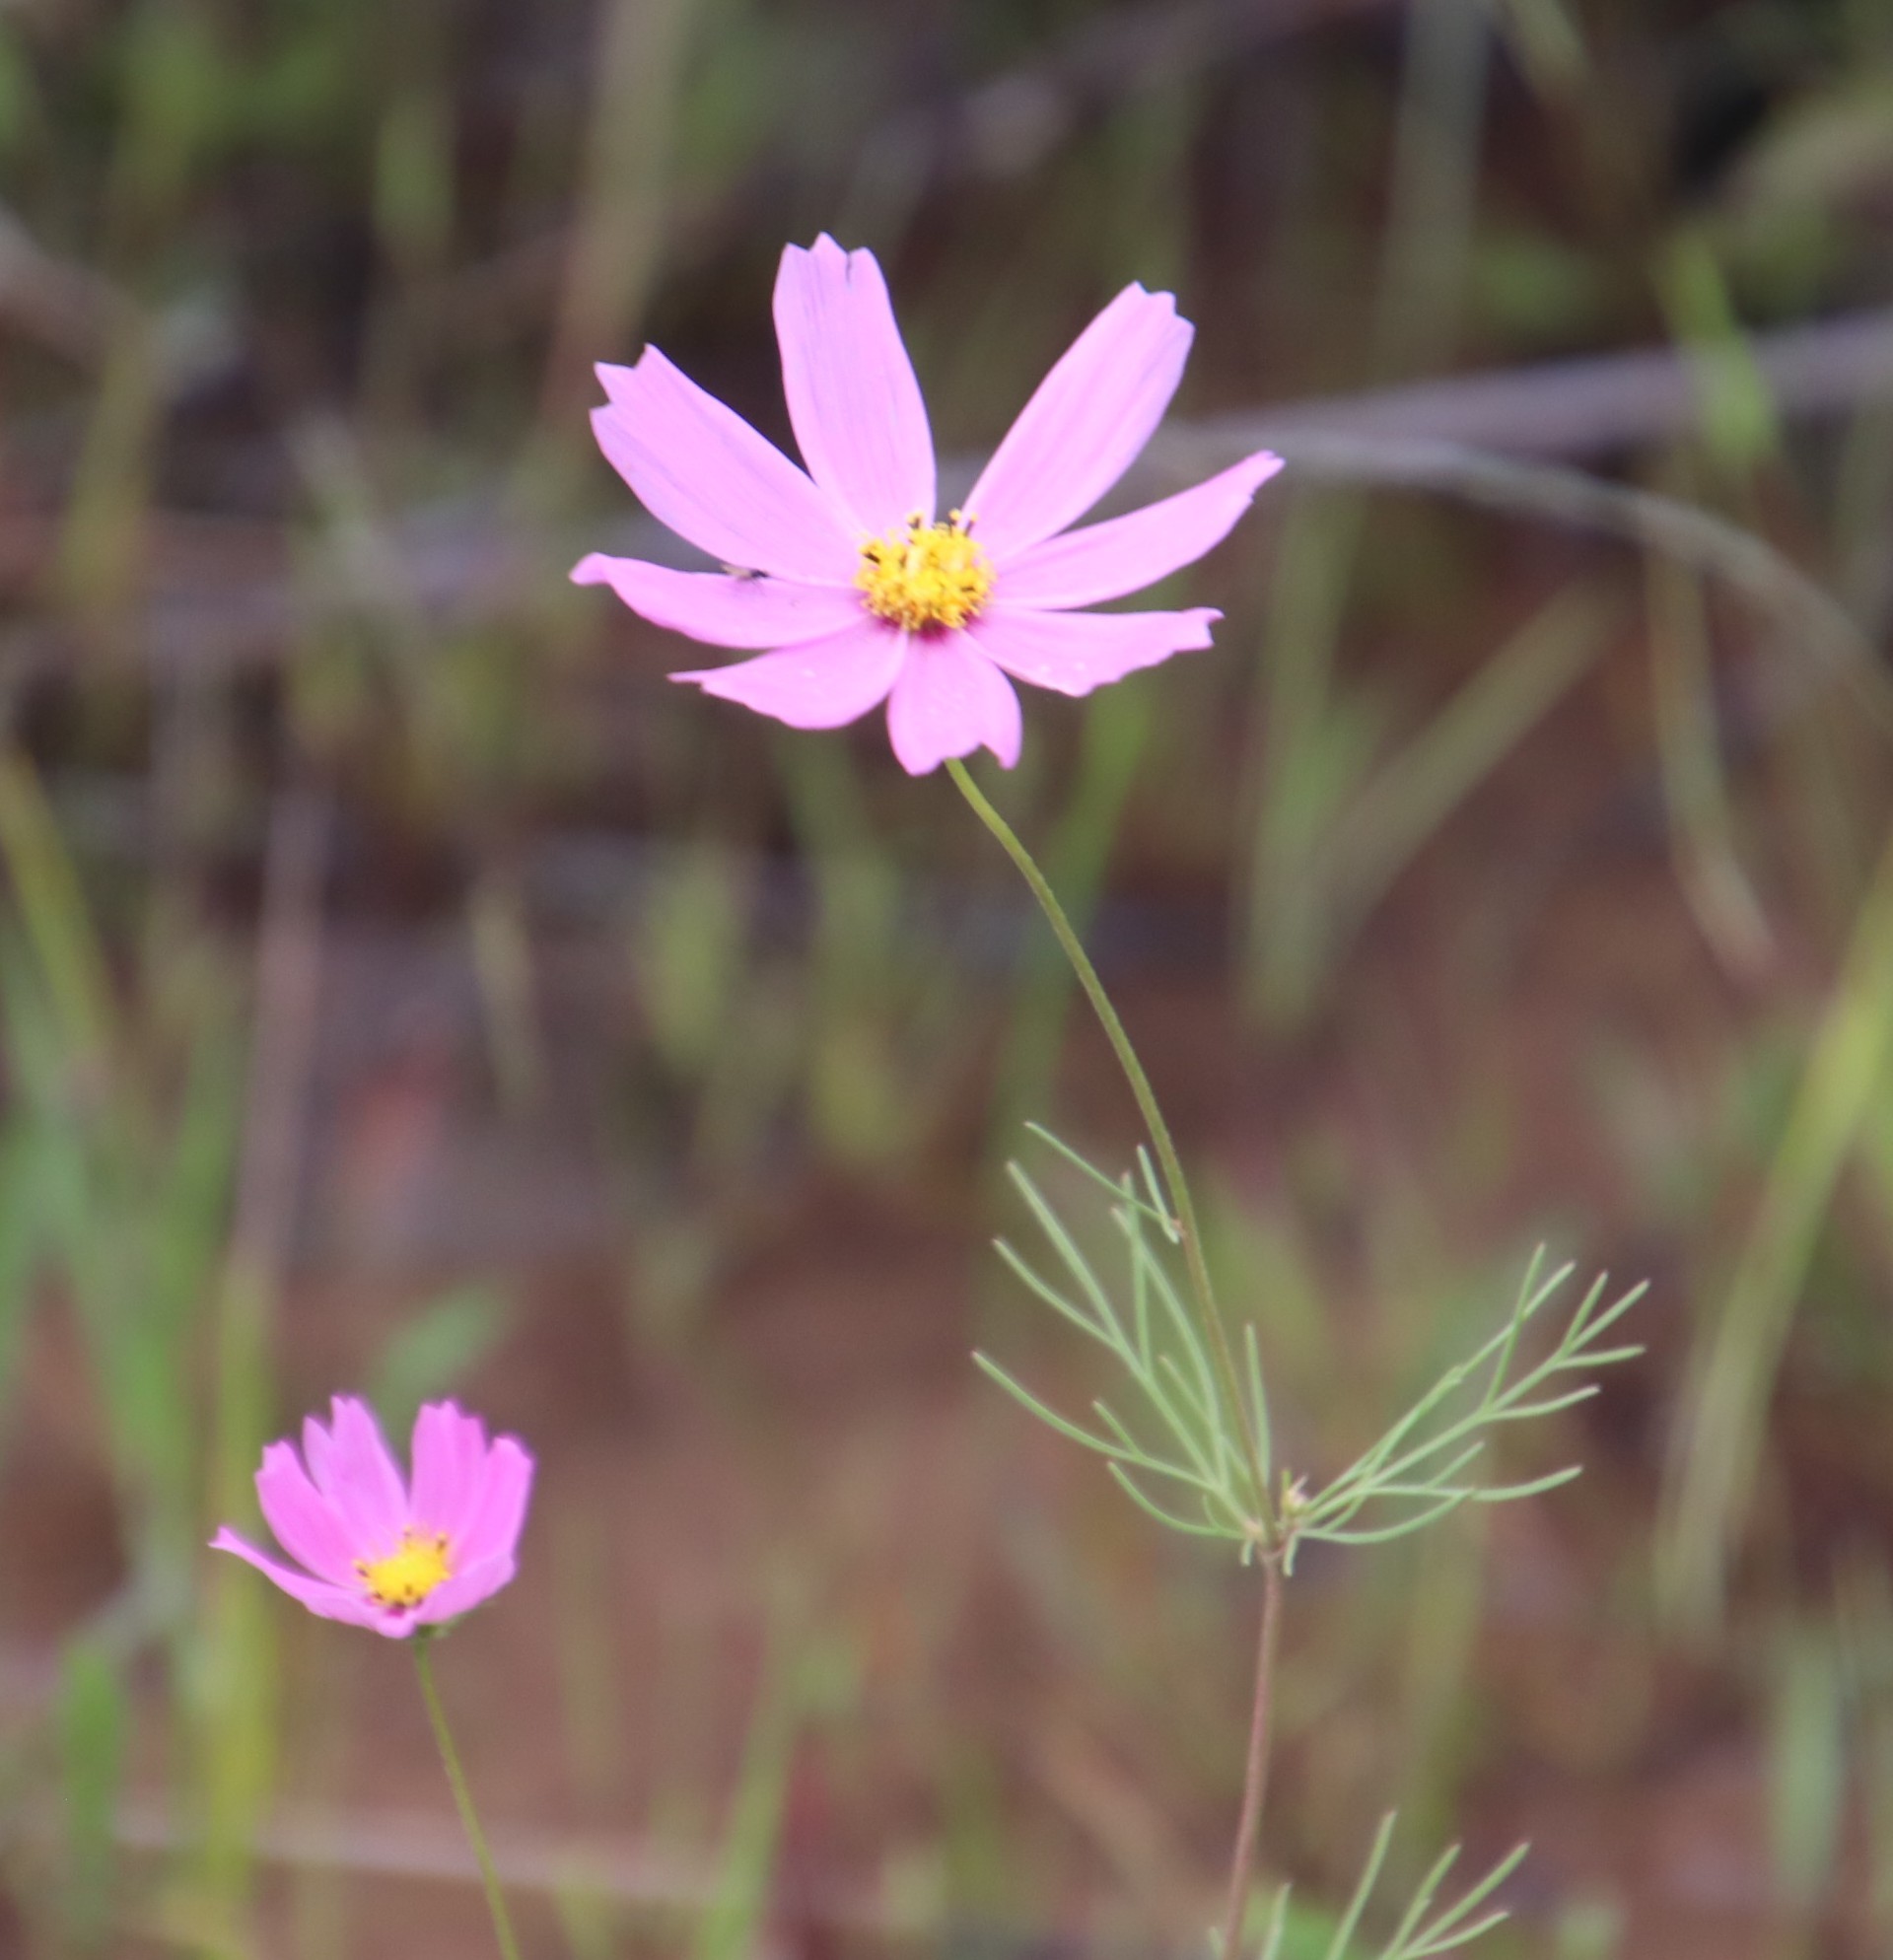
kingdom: Plantae
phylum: Tracheophyta
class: Magnoliopsida
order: Asterales
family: Asteraceae
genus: Cosmos
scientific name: Cosmos bipinnatus
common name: Garden cosmos
